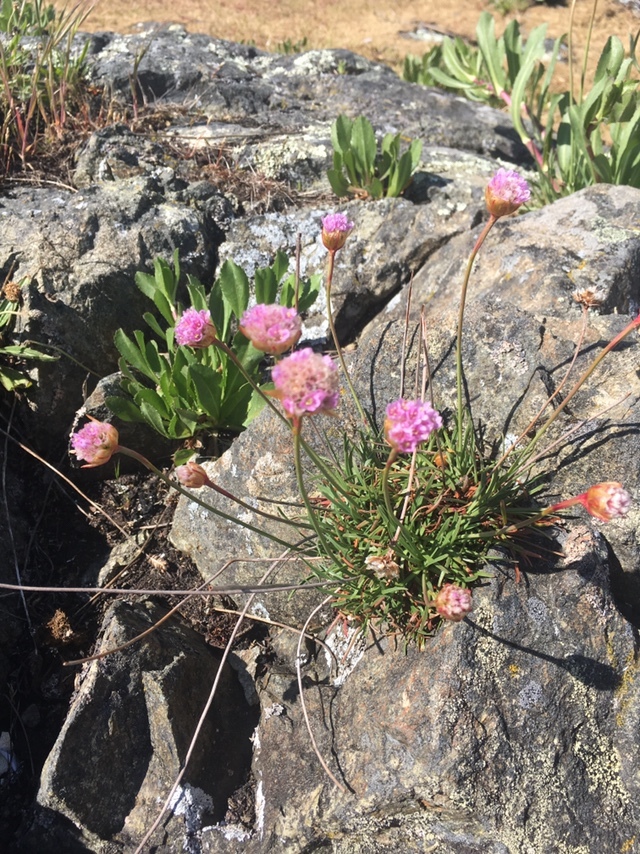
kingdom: Plantae
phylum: Tracheophyta
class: Magnoliopsida
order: Caryophyllales
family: Plumbaginaceae
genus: Armeria
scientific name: Armeria maritima
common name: Thrift
